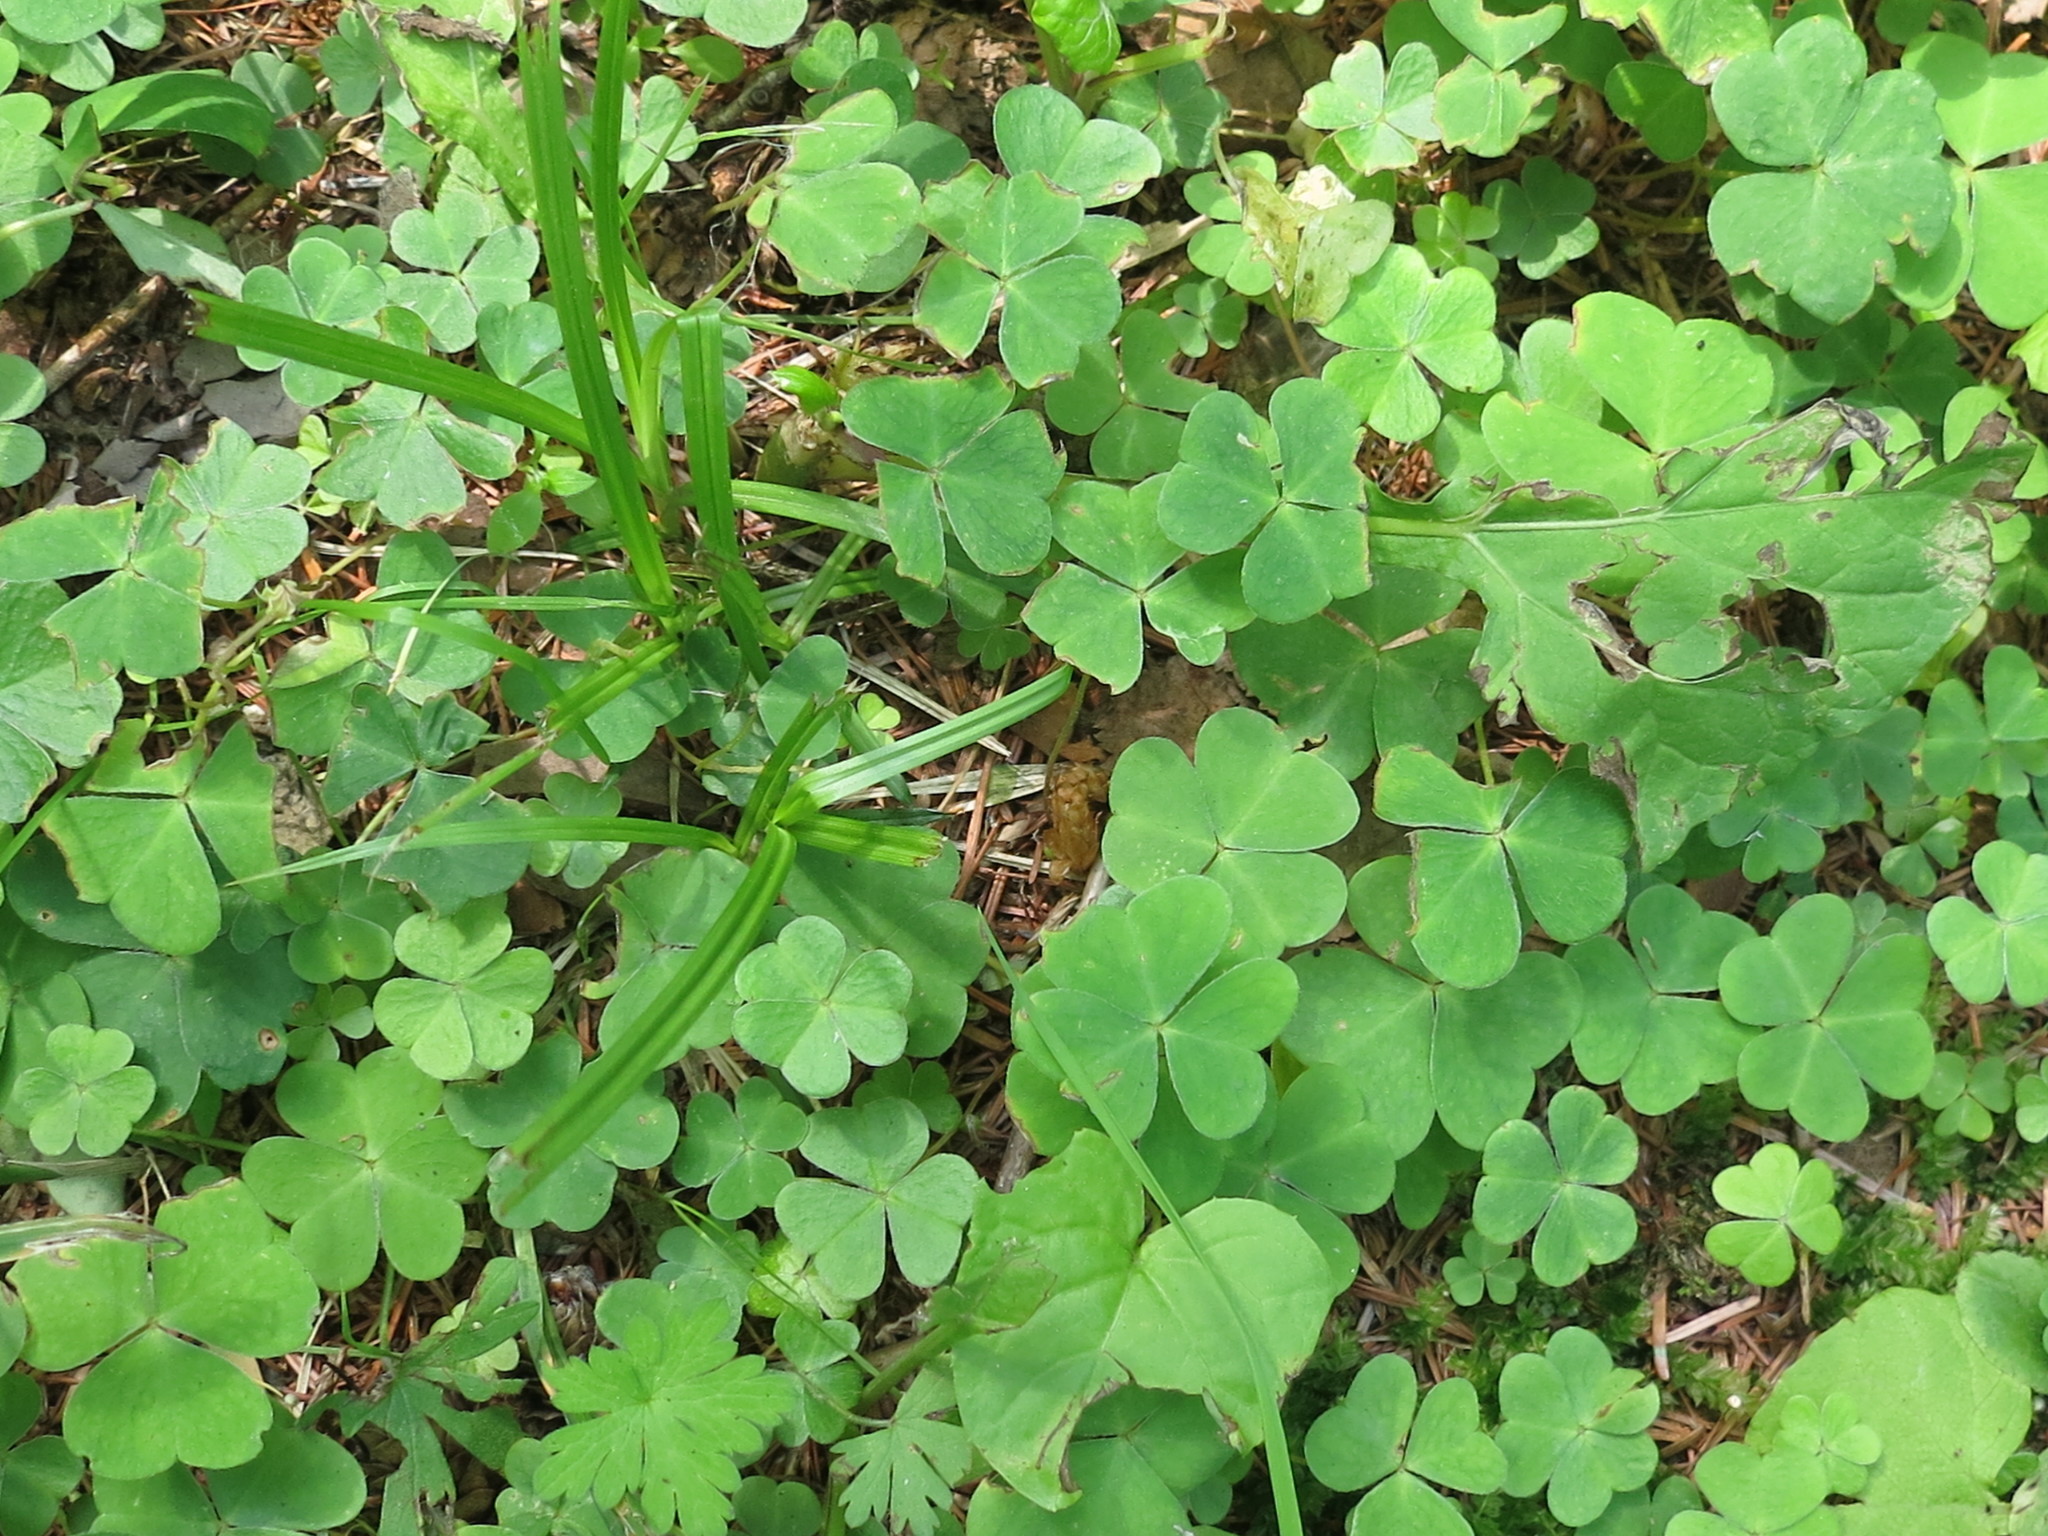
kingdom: Plantae
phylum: Tracheophyta
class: Magnoliopsida
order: Oxalidales
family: Oxalidaceae
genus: Oxalis
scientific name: Oxalis acetosella
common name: Wood-sorrel
